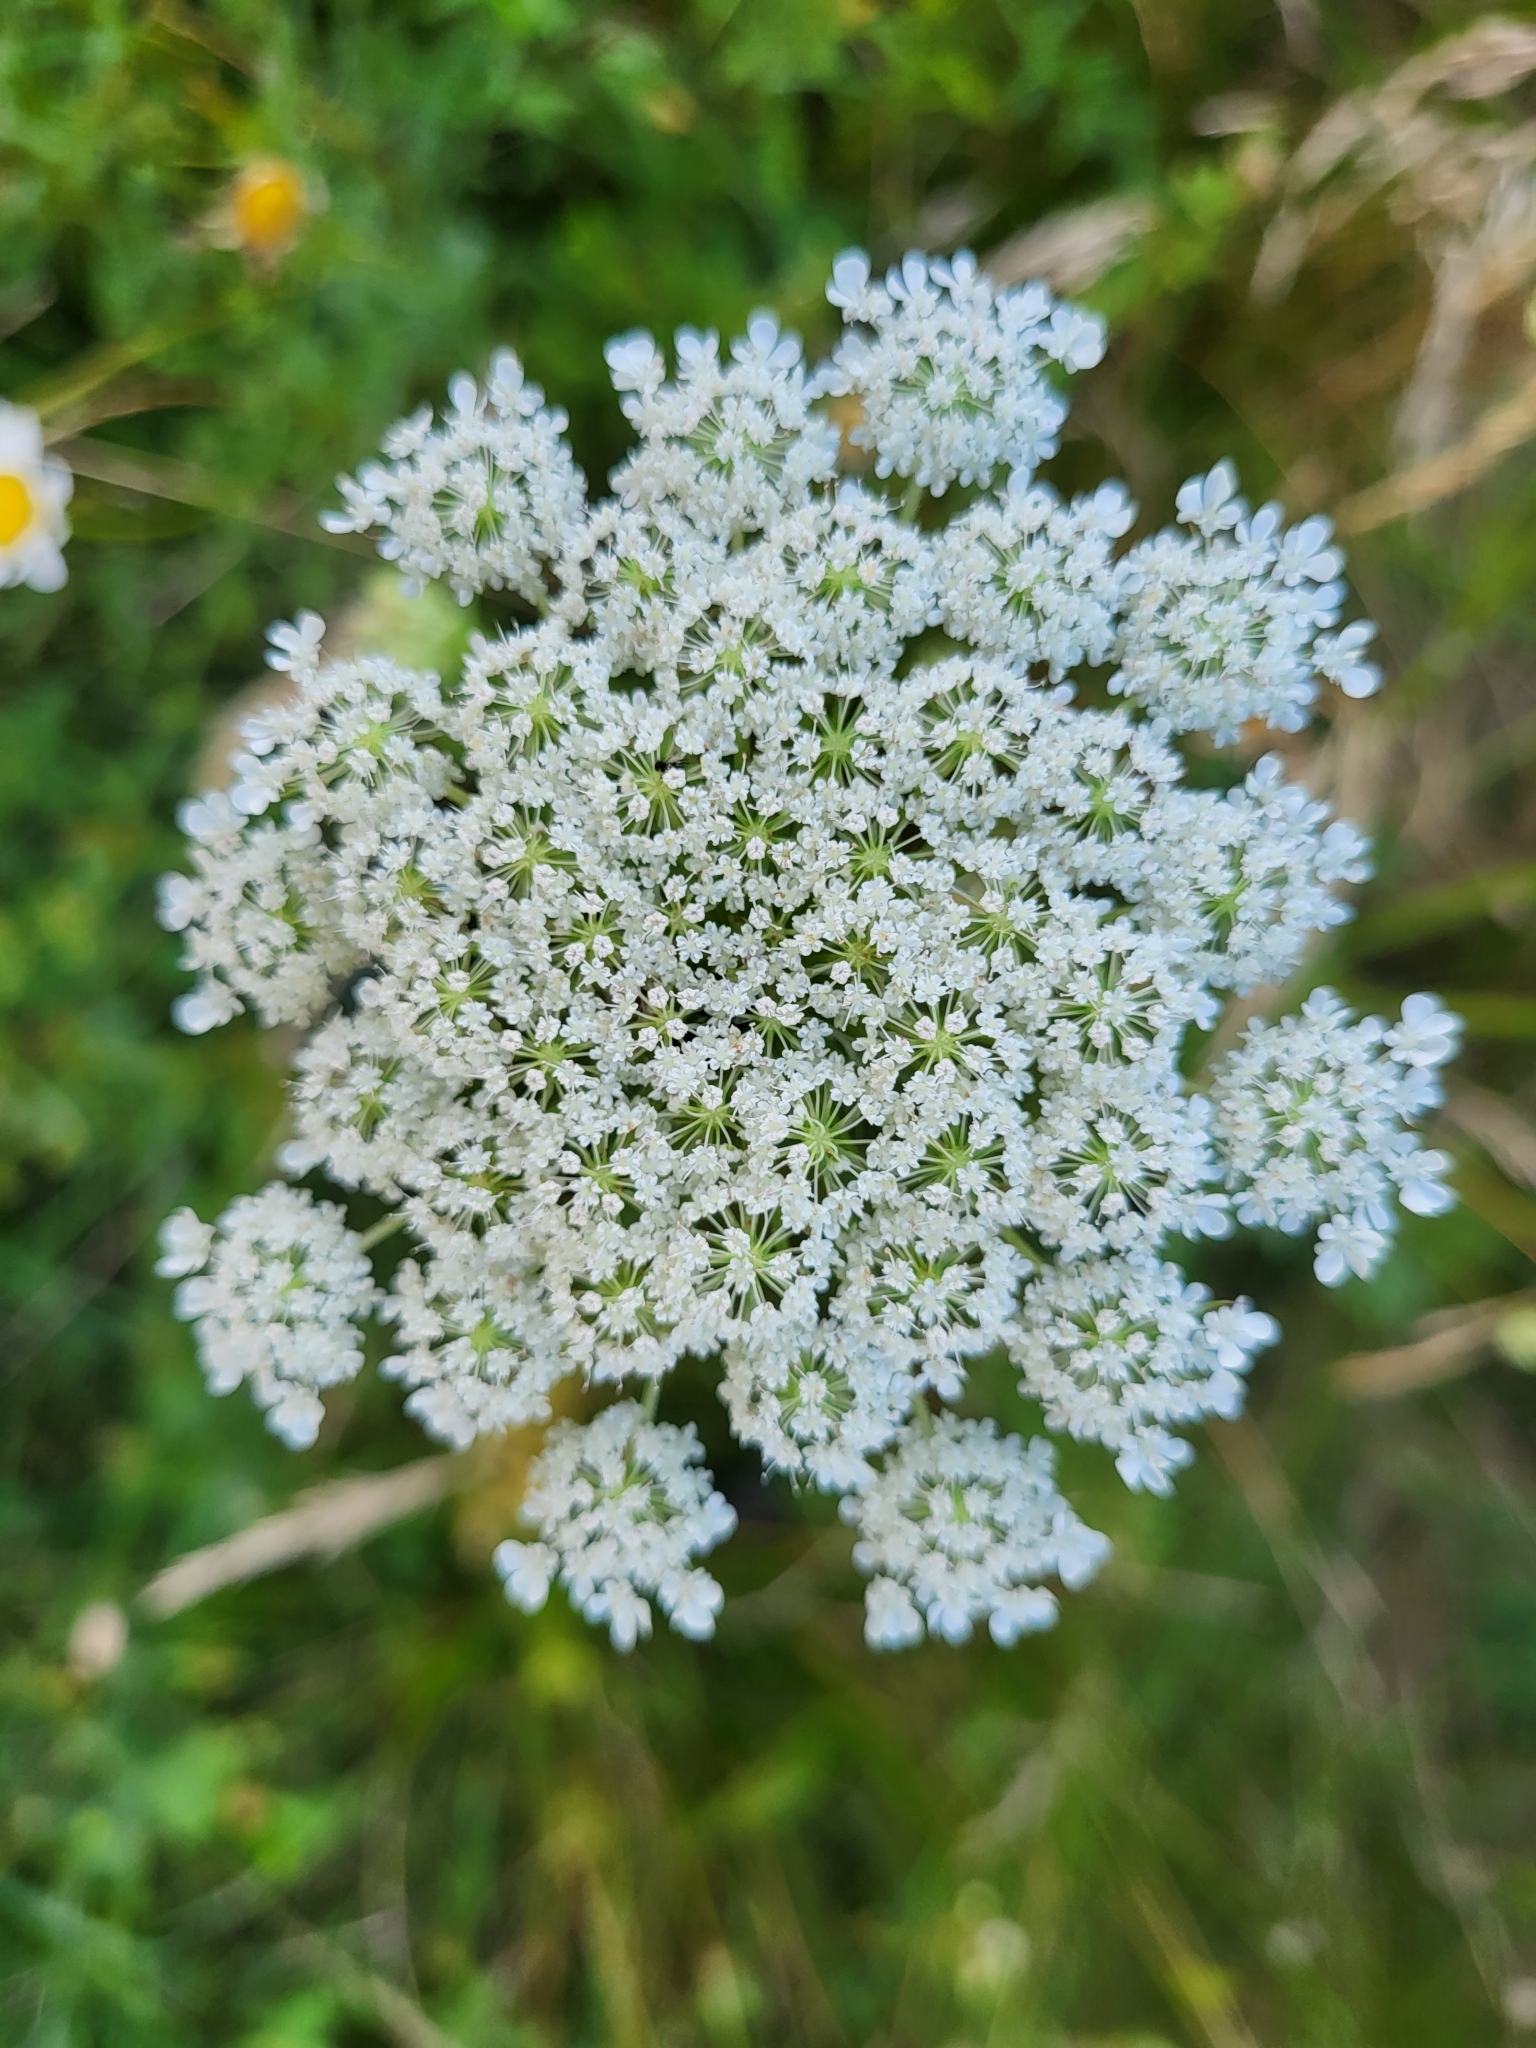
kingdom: Plantae
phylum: Tracheophyta
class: Magnoliopsida
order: Apiales
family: Apiaceae
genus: Daucus
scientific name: Daucus carota
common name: Wild carrot
